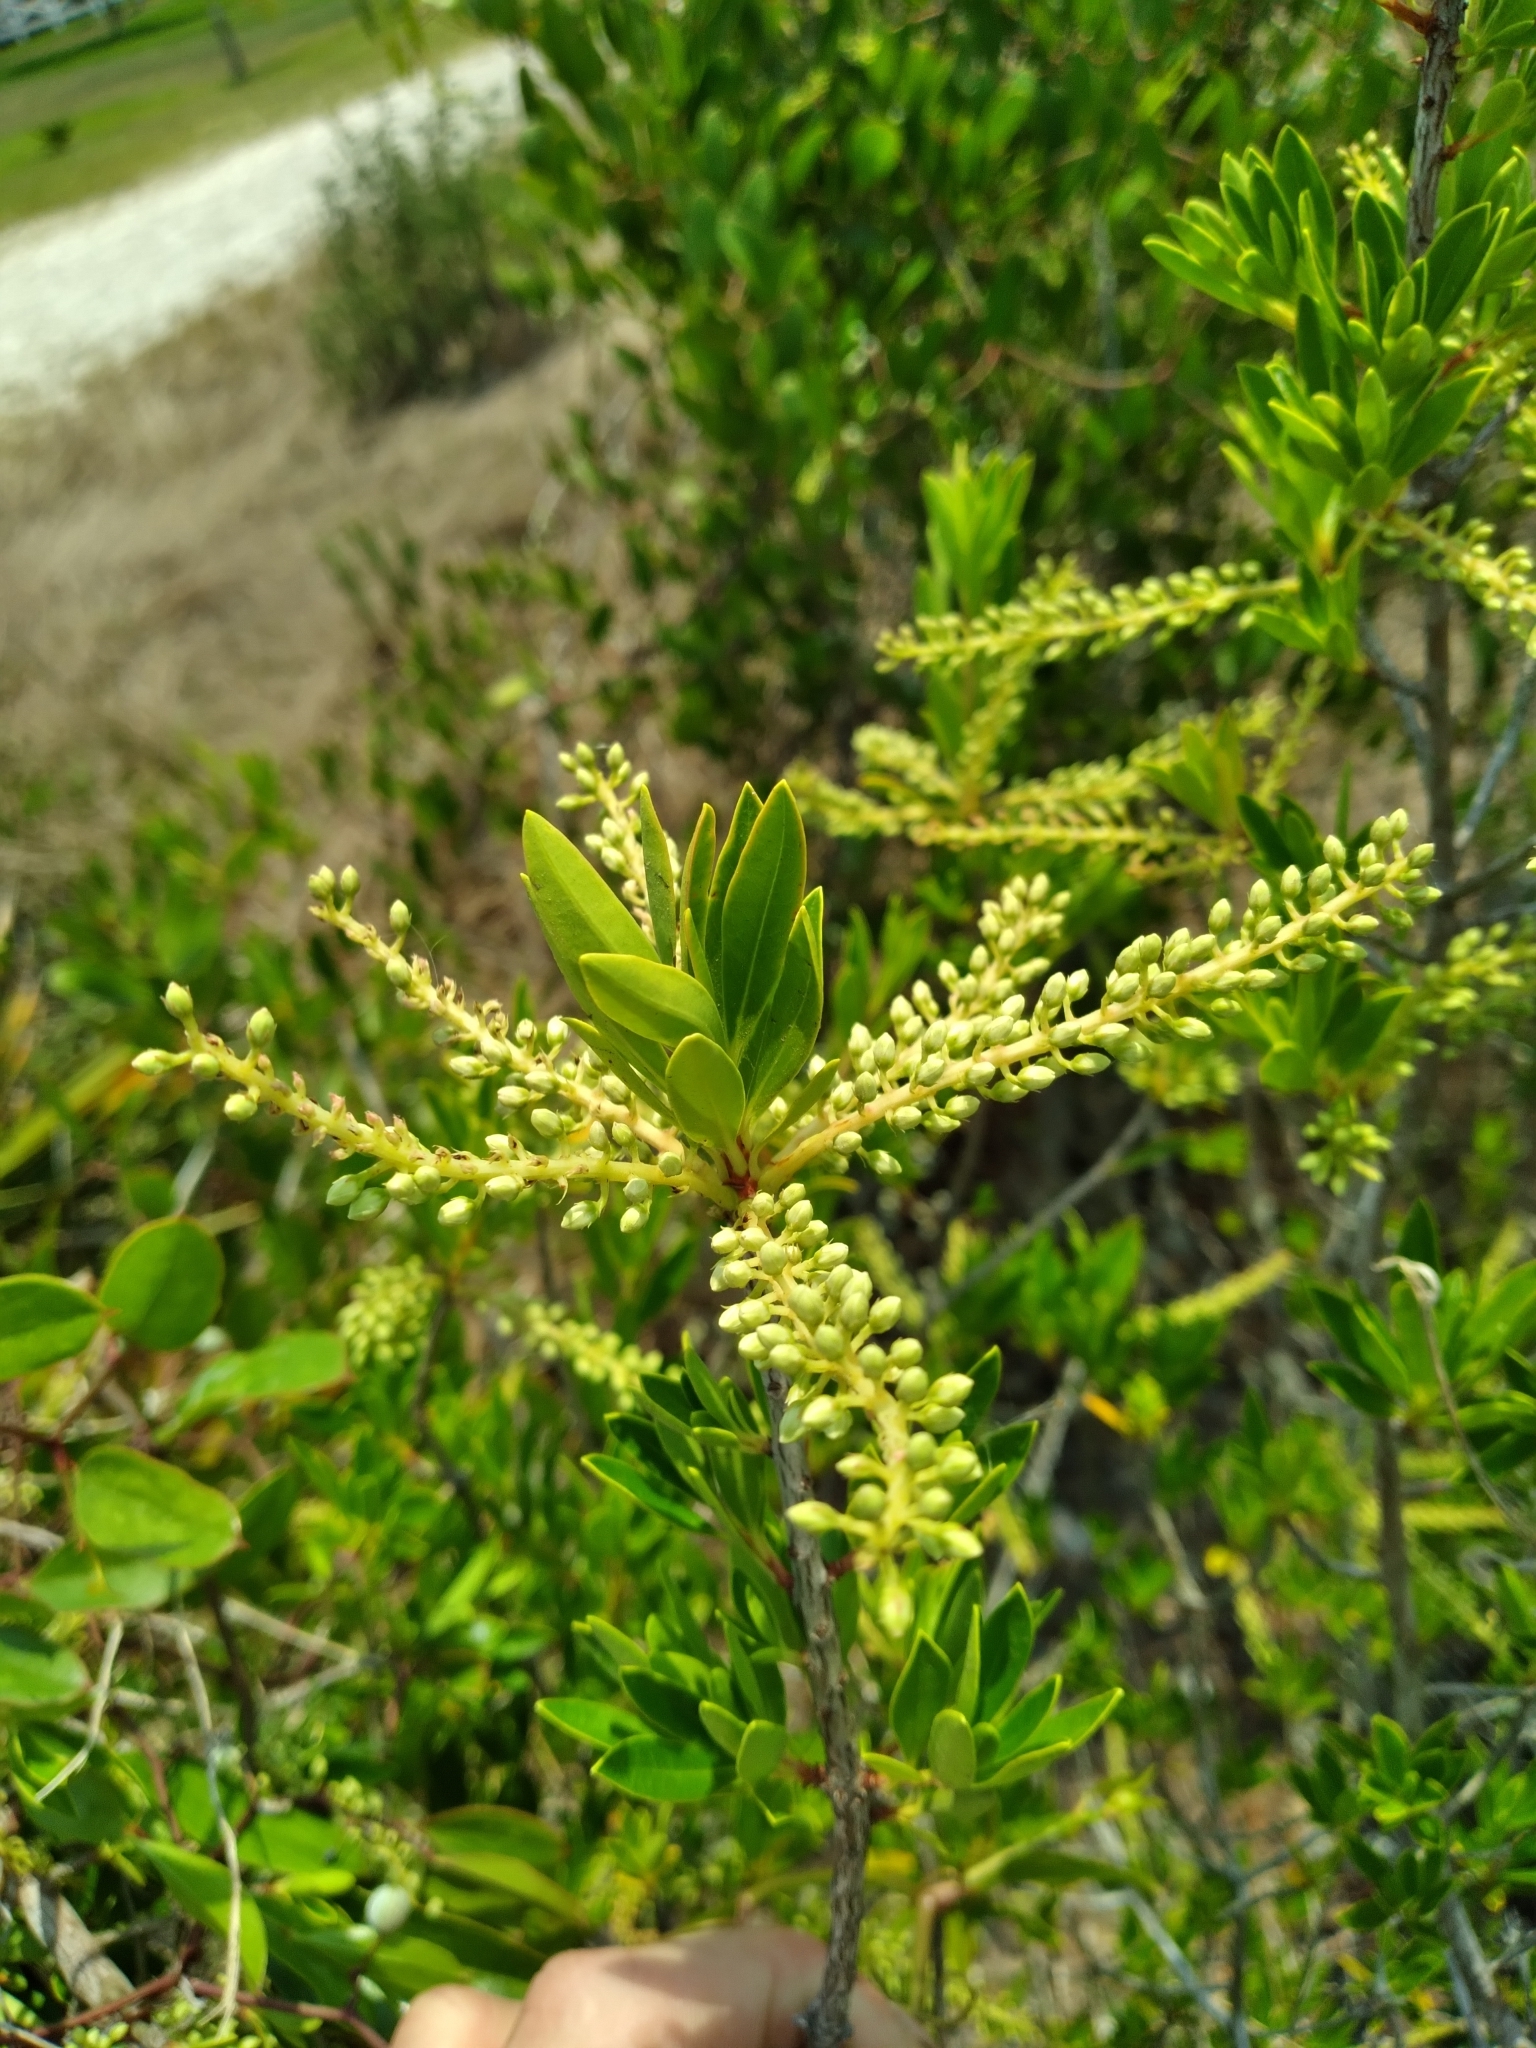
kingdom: Plantae
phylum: Tracheophyta
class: Magnoliopsida
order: Ericales
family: Cyrillaceae
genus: Cyrilla
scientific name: Cyrilla racemiflora
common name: Black titi
